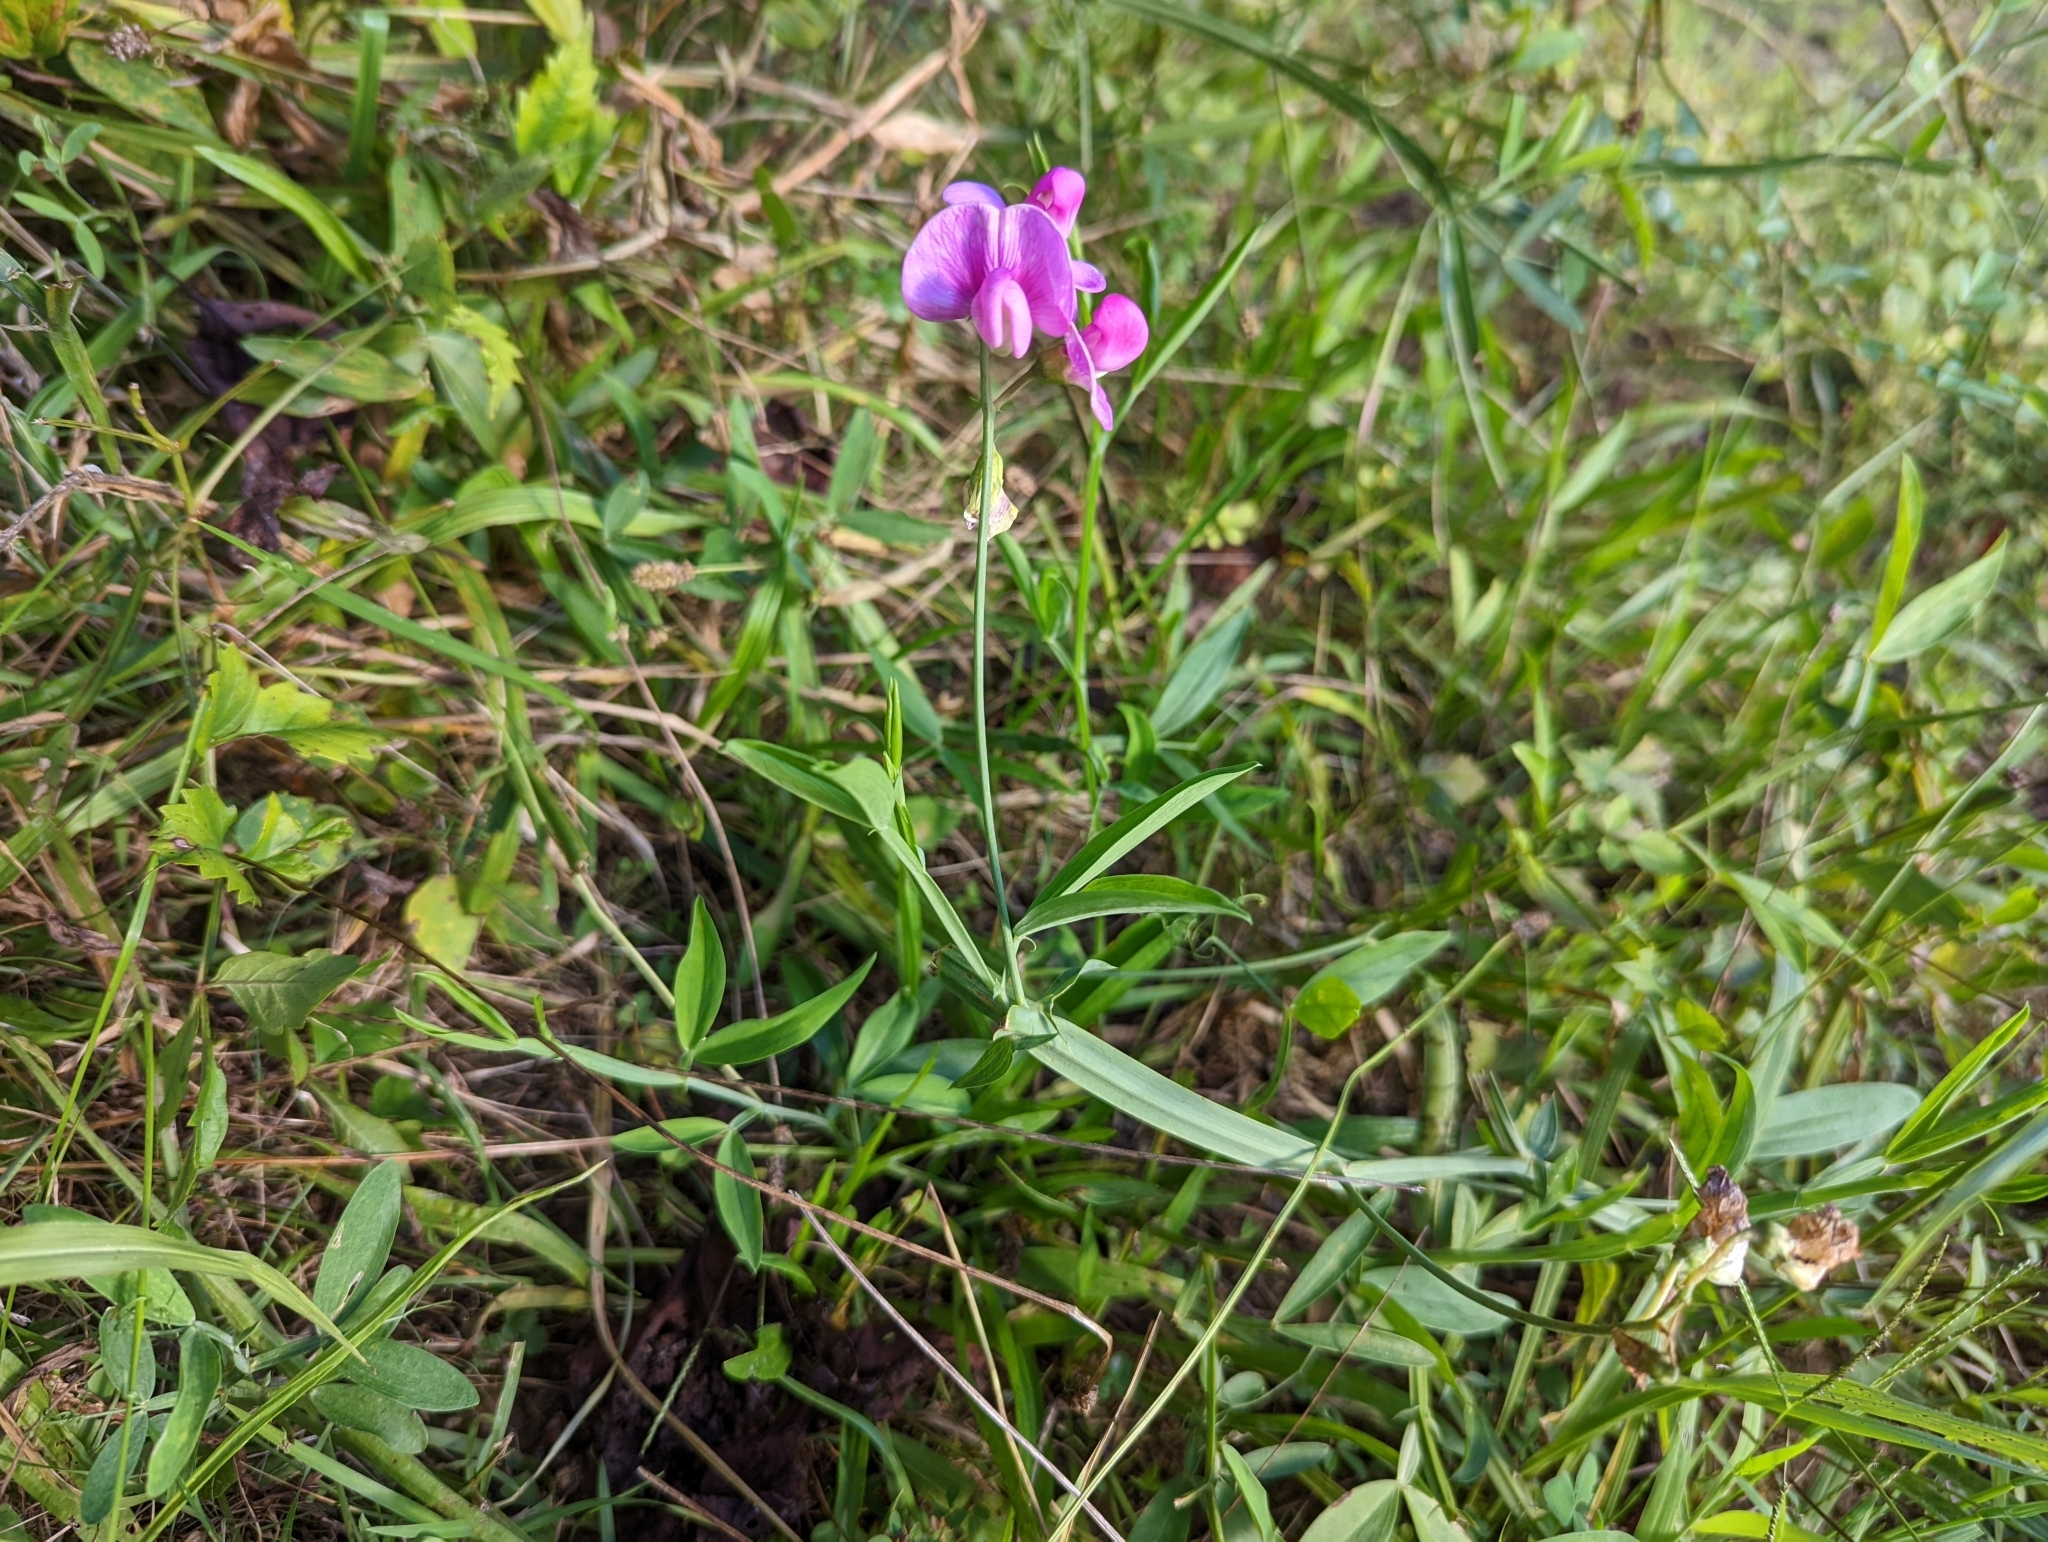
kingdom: Plantae
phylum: Tracheophyta
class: Magnoliopsida
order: Fabales
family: Fabaceae
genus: Lathyrus
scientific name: Lathyrus latifolius
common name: Perennial pea
